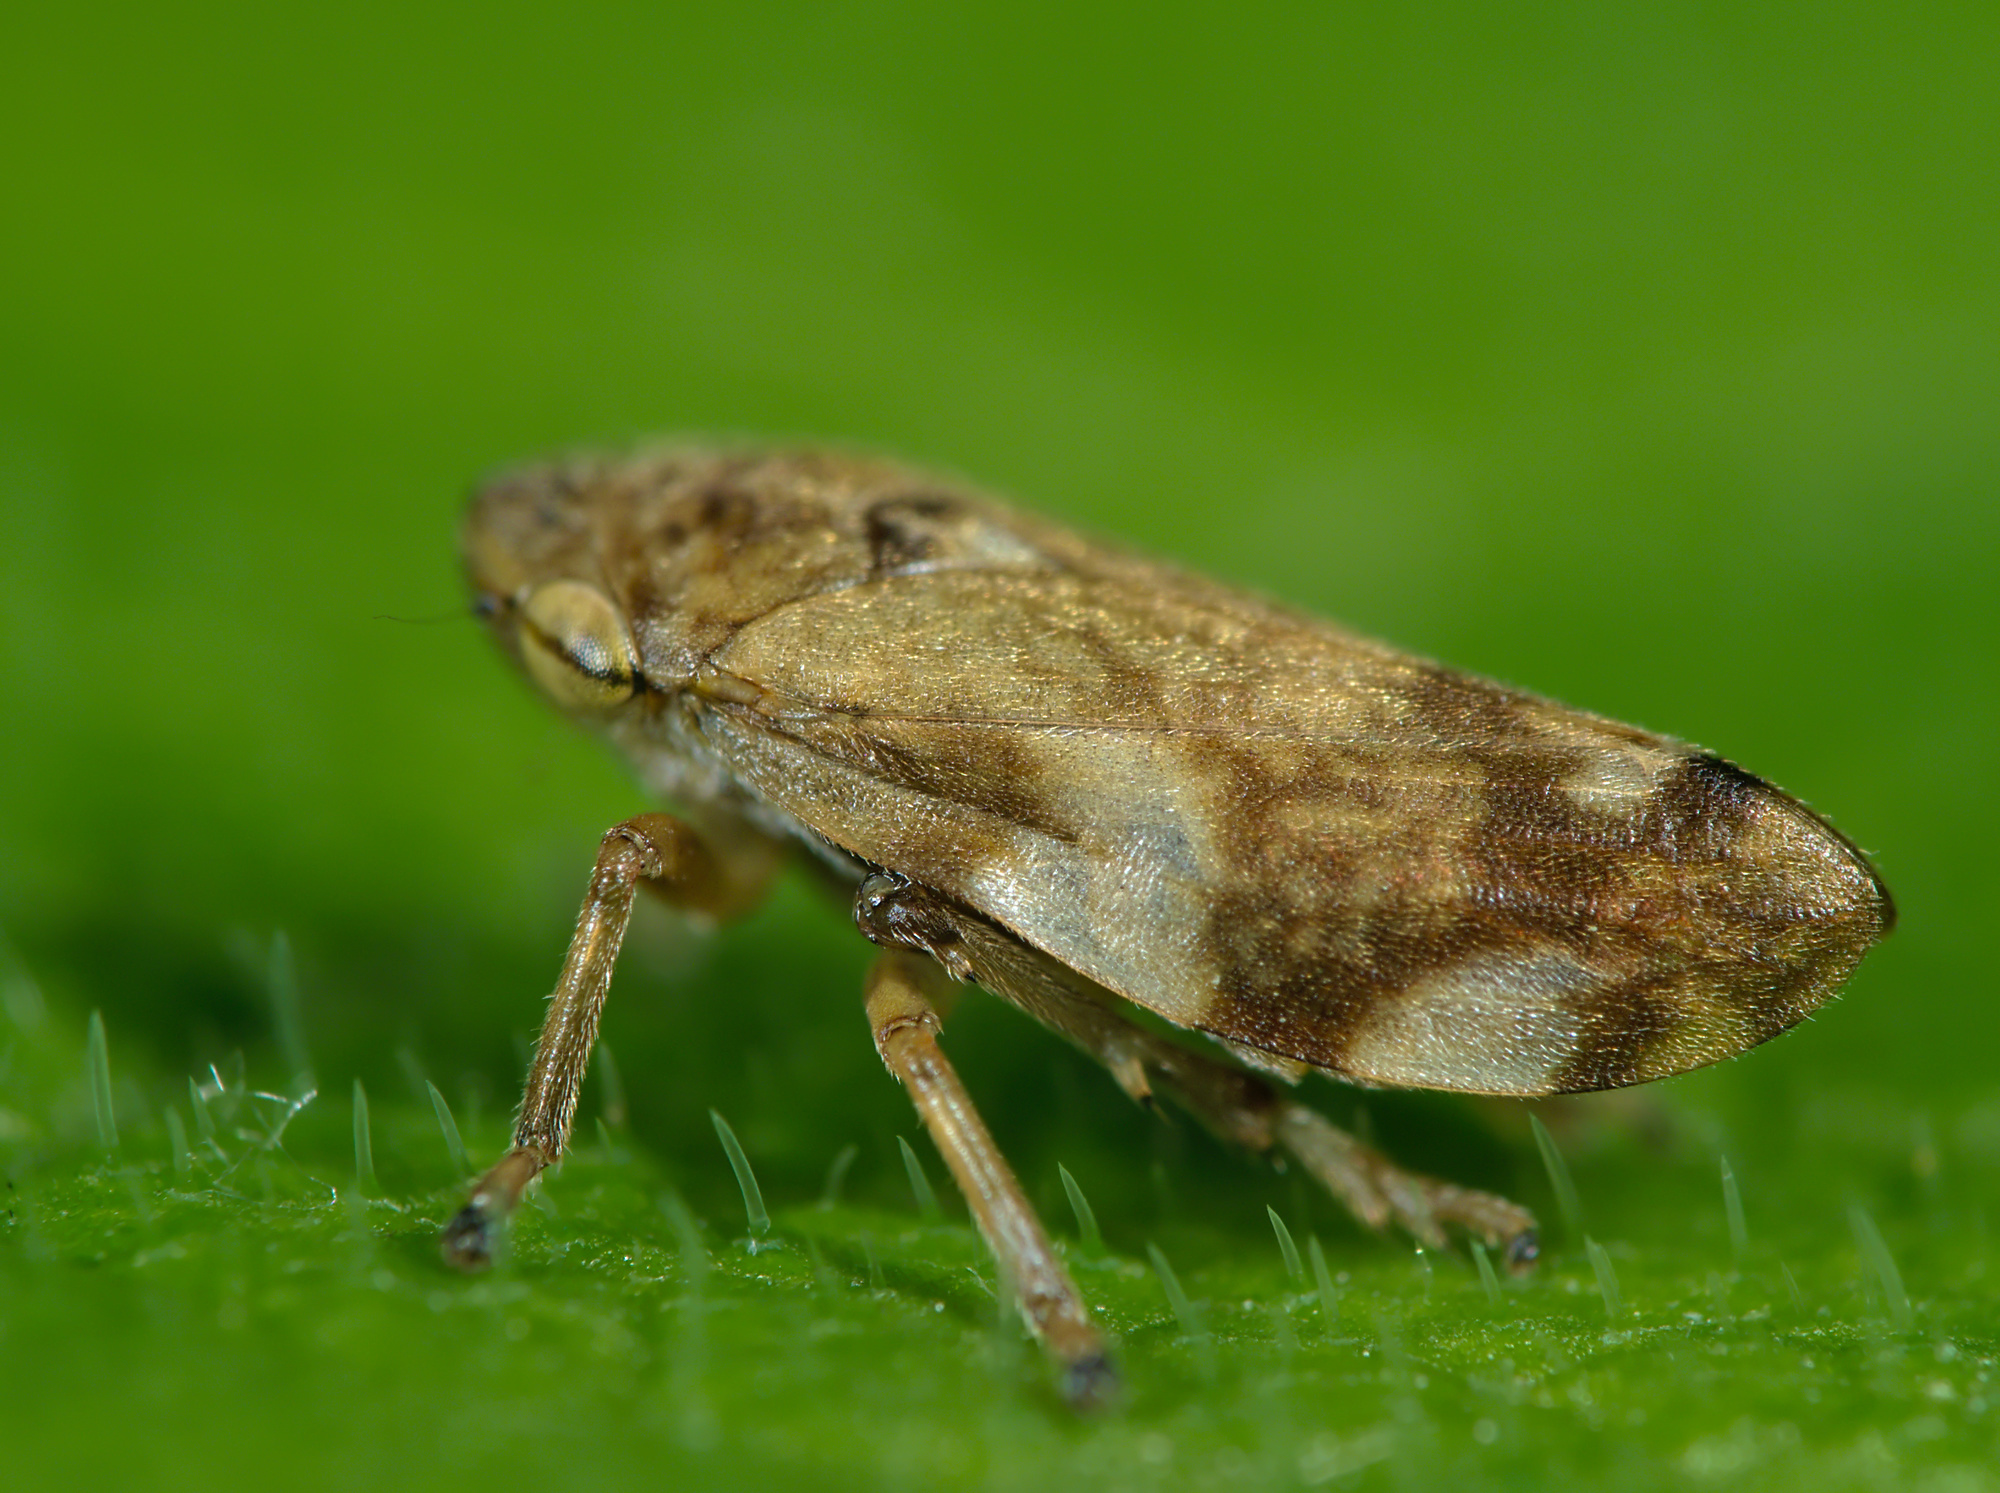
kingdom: Animalia
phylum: Arthropoda
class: Insecta
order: Hemiptera
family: Aphrophoridae
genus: Philaenus
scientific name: Philaenus spumarius
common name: Meadow spittlebug
